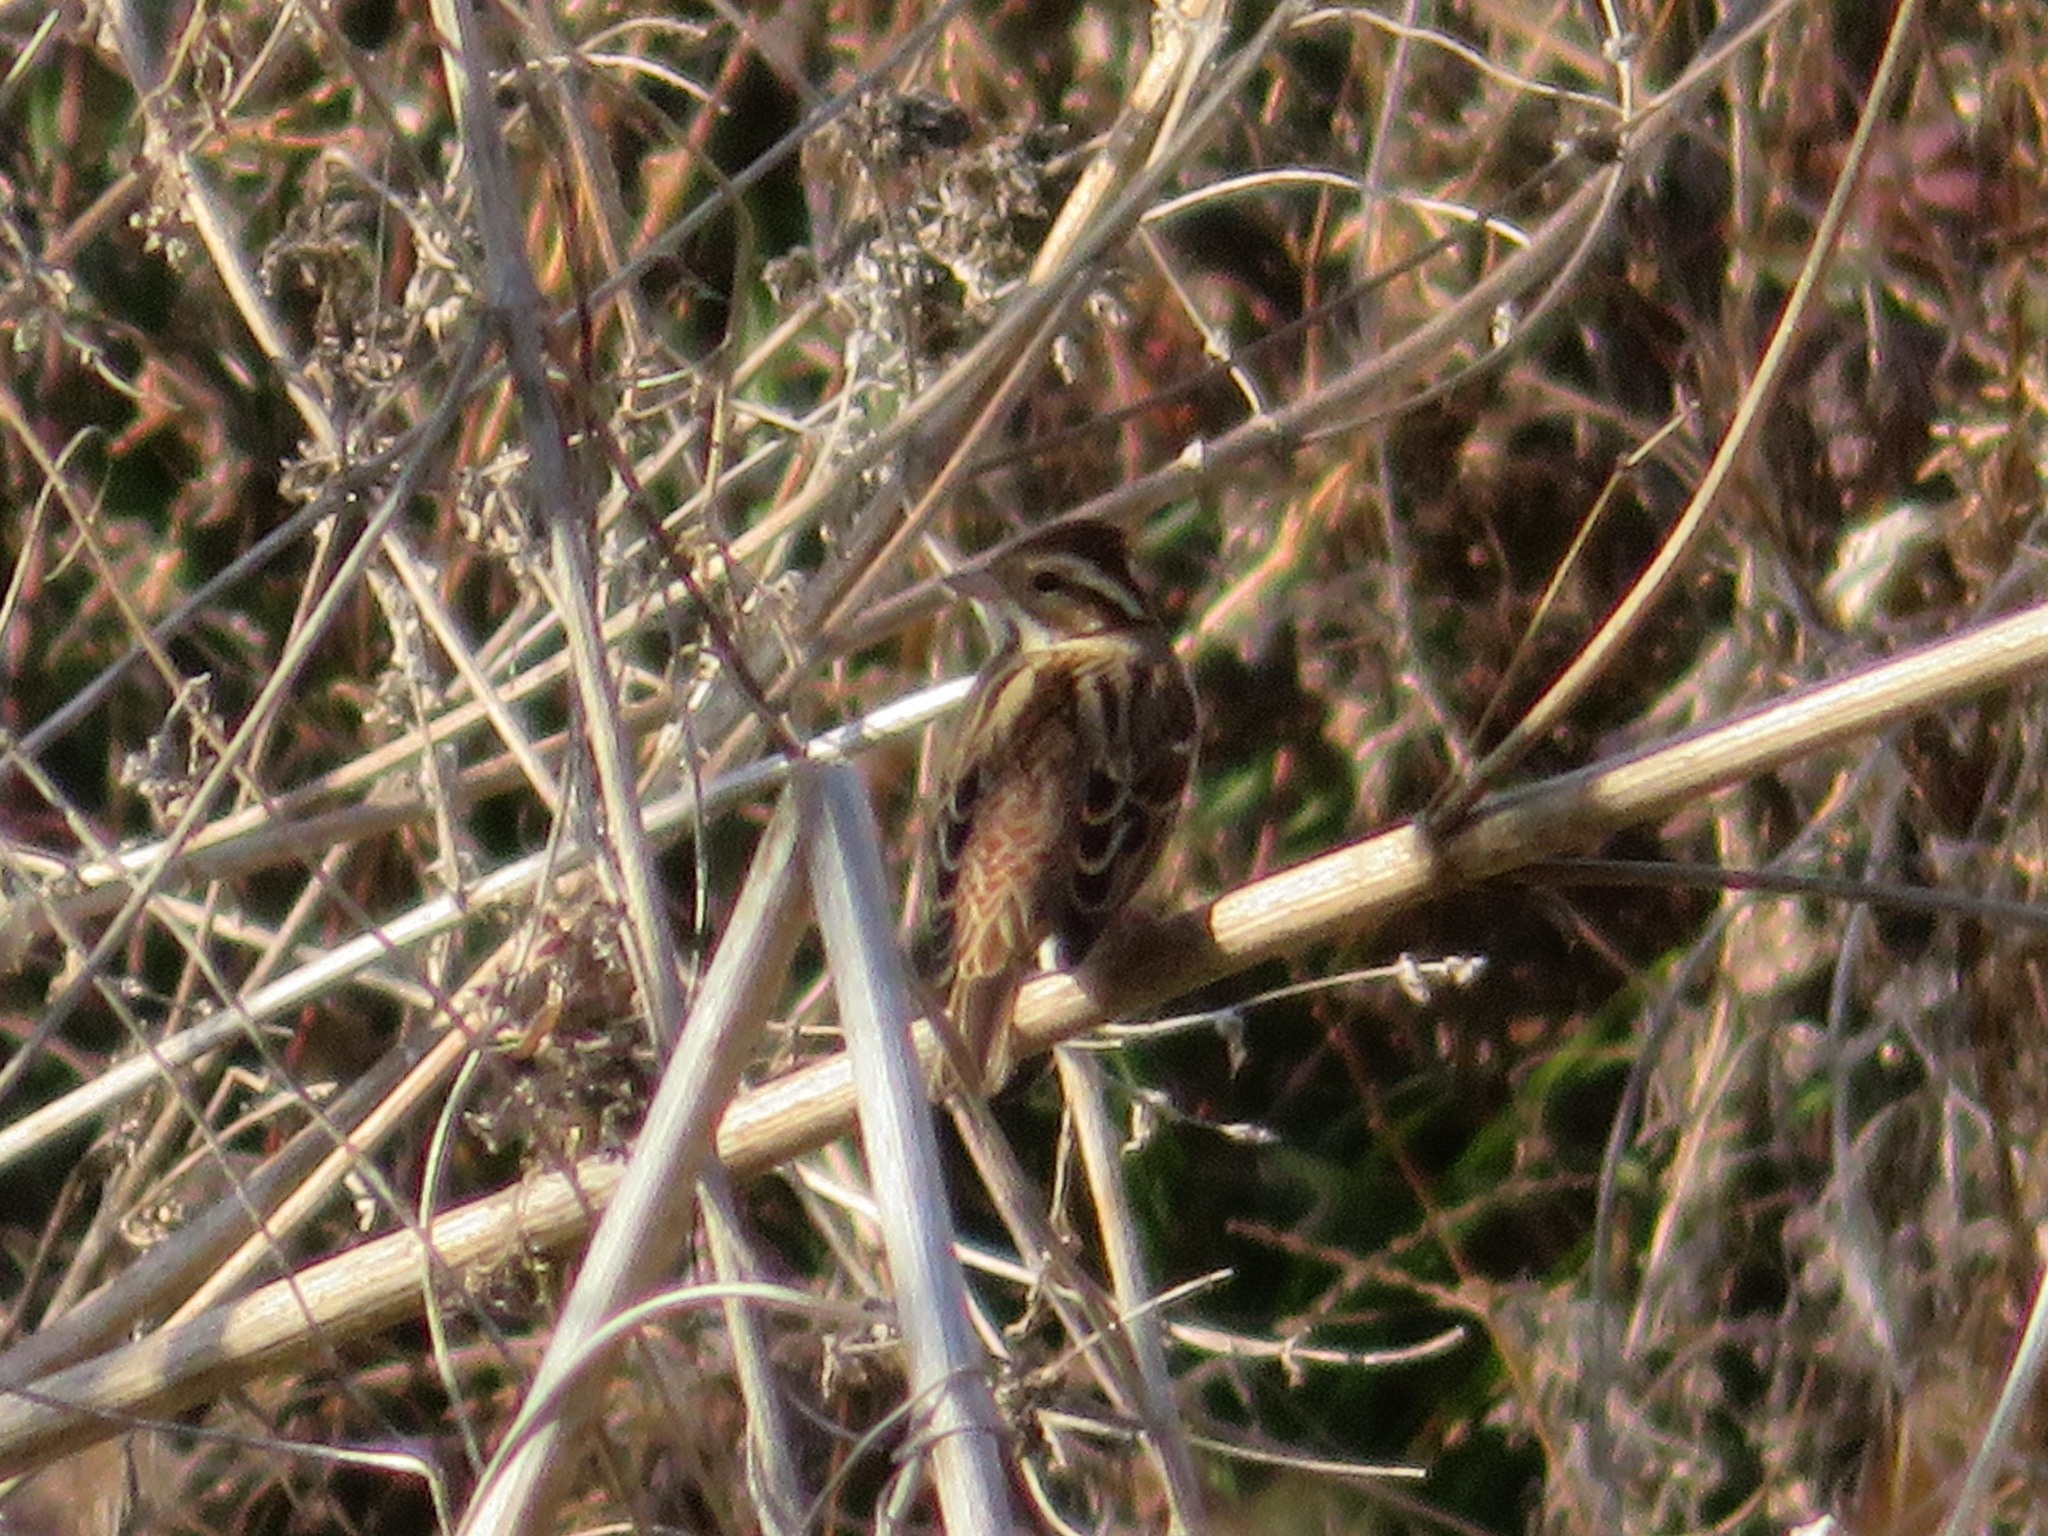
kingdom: Animalia
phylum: Chordata
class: Aves
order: Passeriformes
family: Emberizidae
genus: Emberiza
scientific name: Emberiza rustica
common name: Rustic bunting
